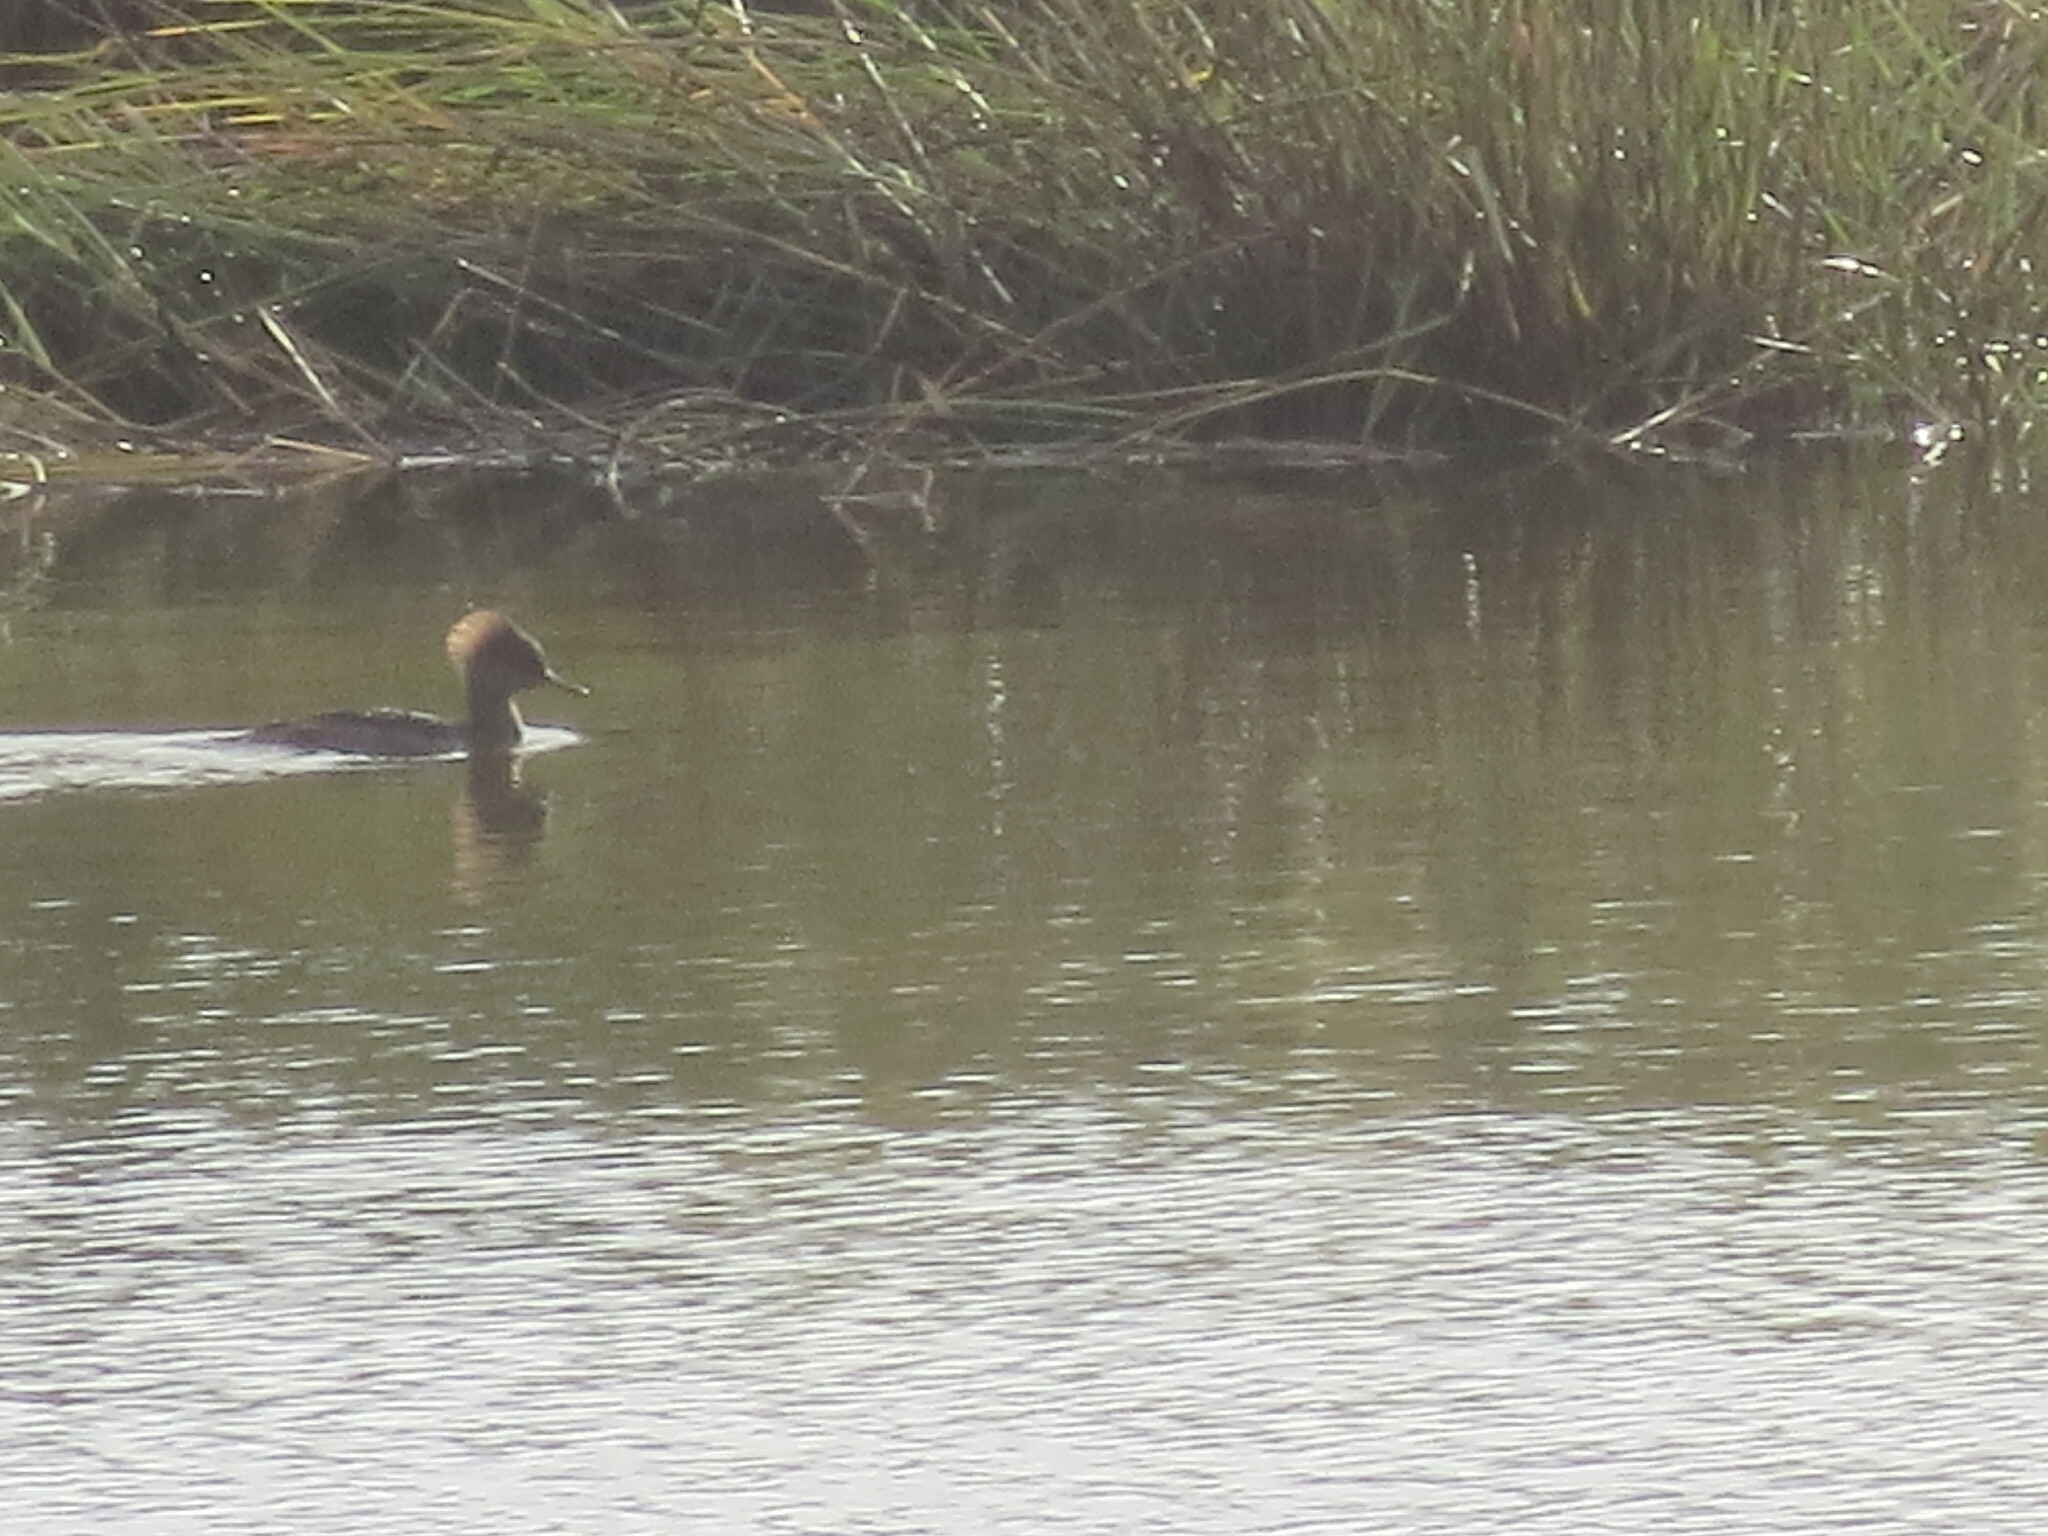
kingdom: Animalia
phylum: Chordata
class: Aves
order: Anseriformes
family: Anatidae
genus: Lophodytes
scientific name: Lophodytes cucullatus
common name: Hooded merganser
